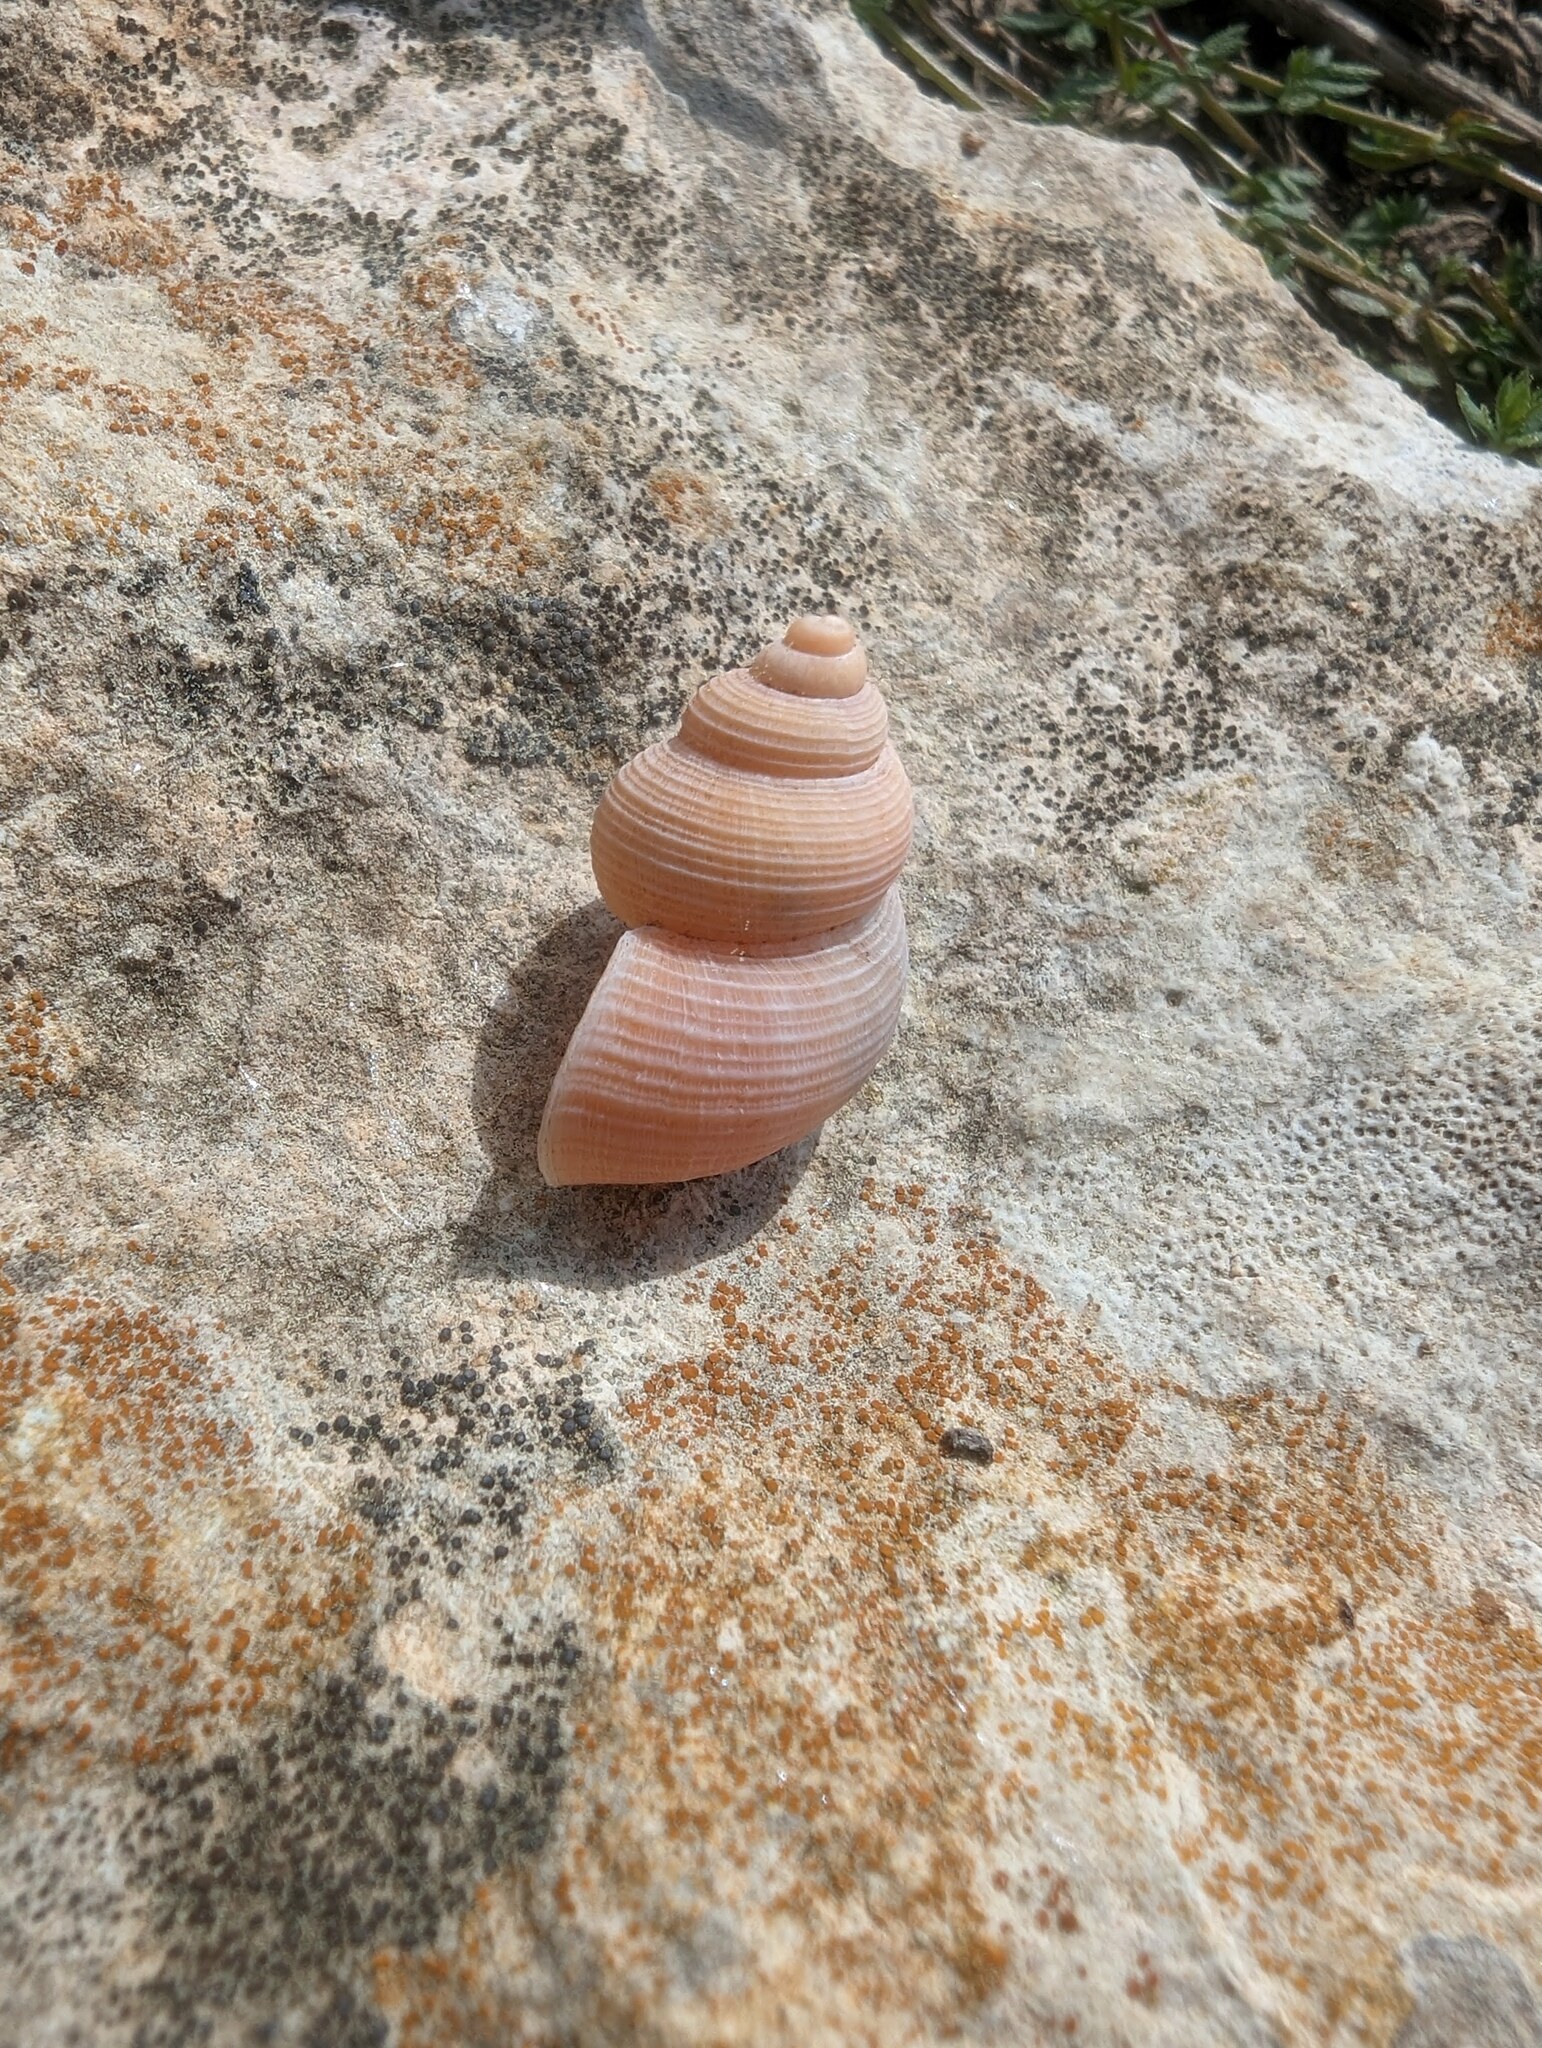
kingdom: Animalia
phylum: Mollusca
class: Gastropoda
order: Littorinimorpha
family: Pomatiidae
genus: Tudorella
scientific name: Tudorella sulcata
